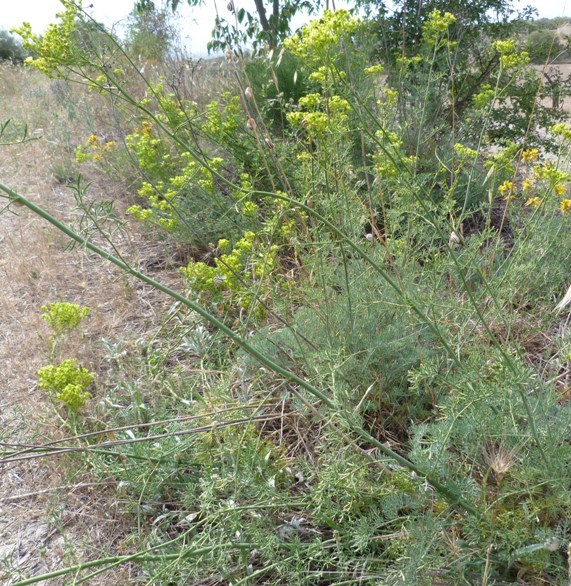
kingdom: Plantae
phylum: Tracheophyta
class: Magnoliopsida
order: Sapindales
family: Rutaceae
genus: Ruta
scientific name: Ruta montana
